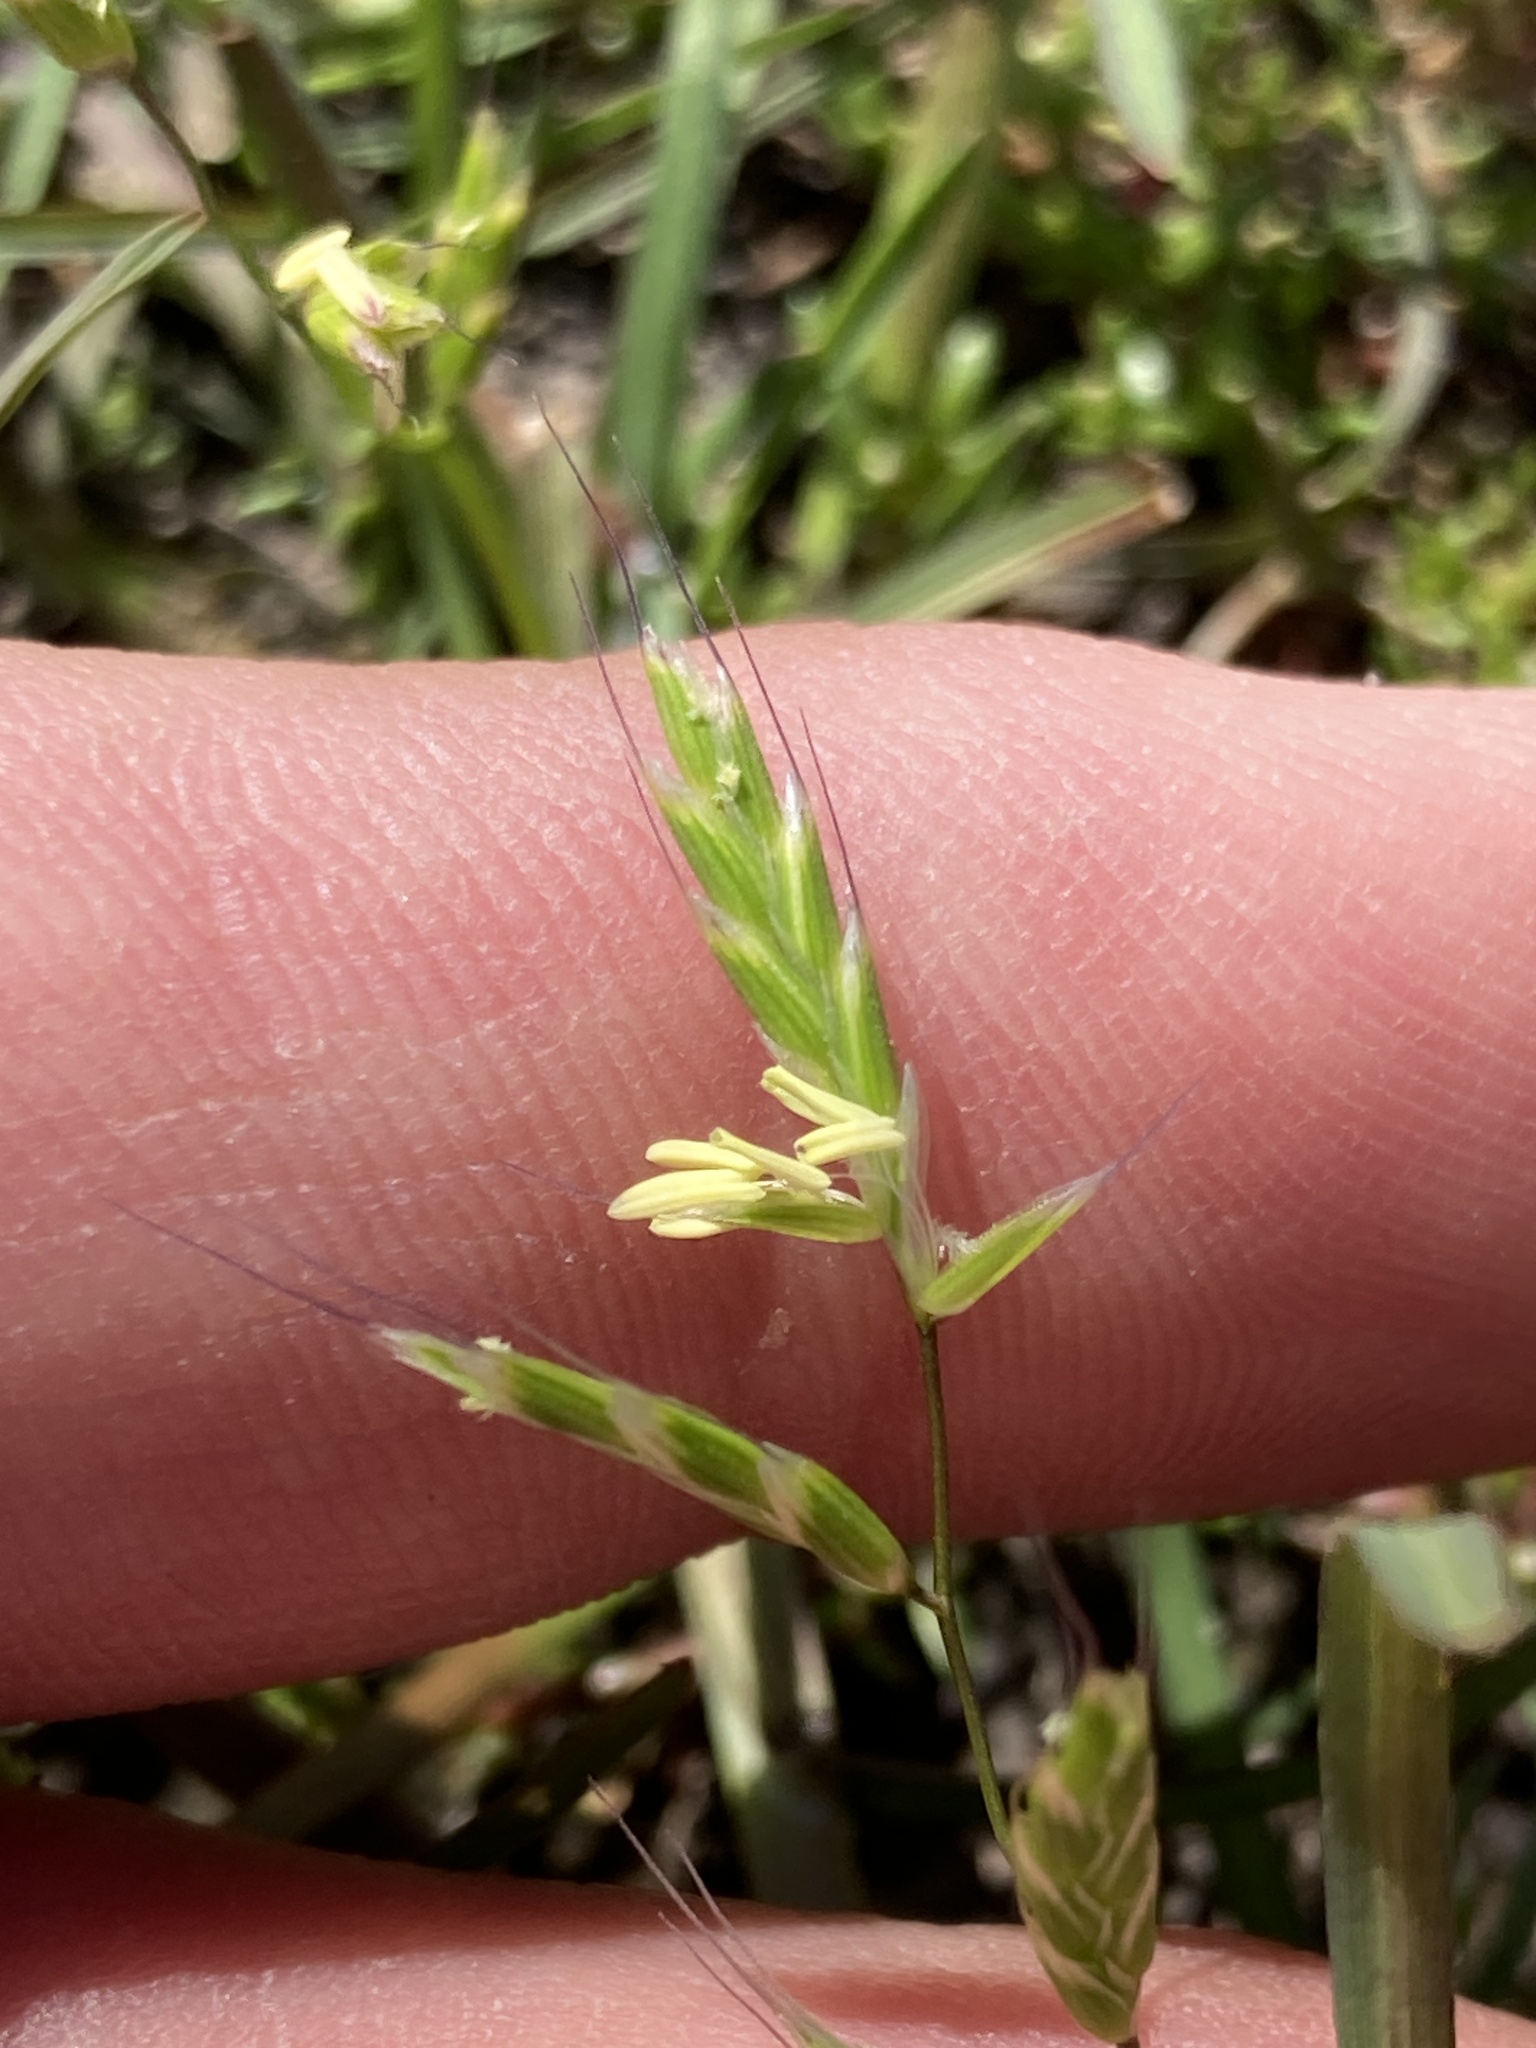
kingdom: Plantae
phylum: Tracheophyta
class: Liliopsida
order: Poales
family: Poaceae
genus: Pleuropogon
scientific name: Pleuropogon californicus
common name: California semaphore grass
